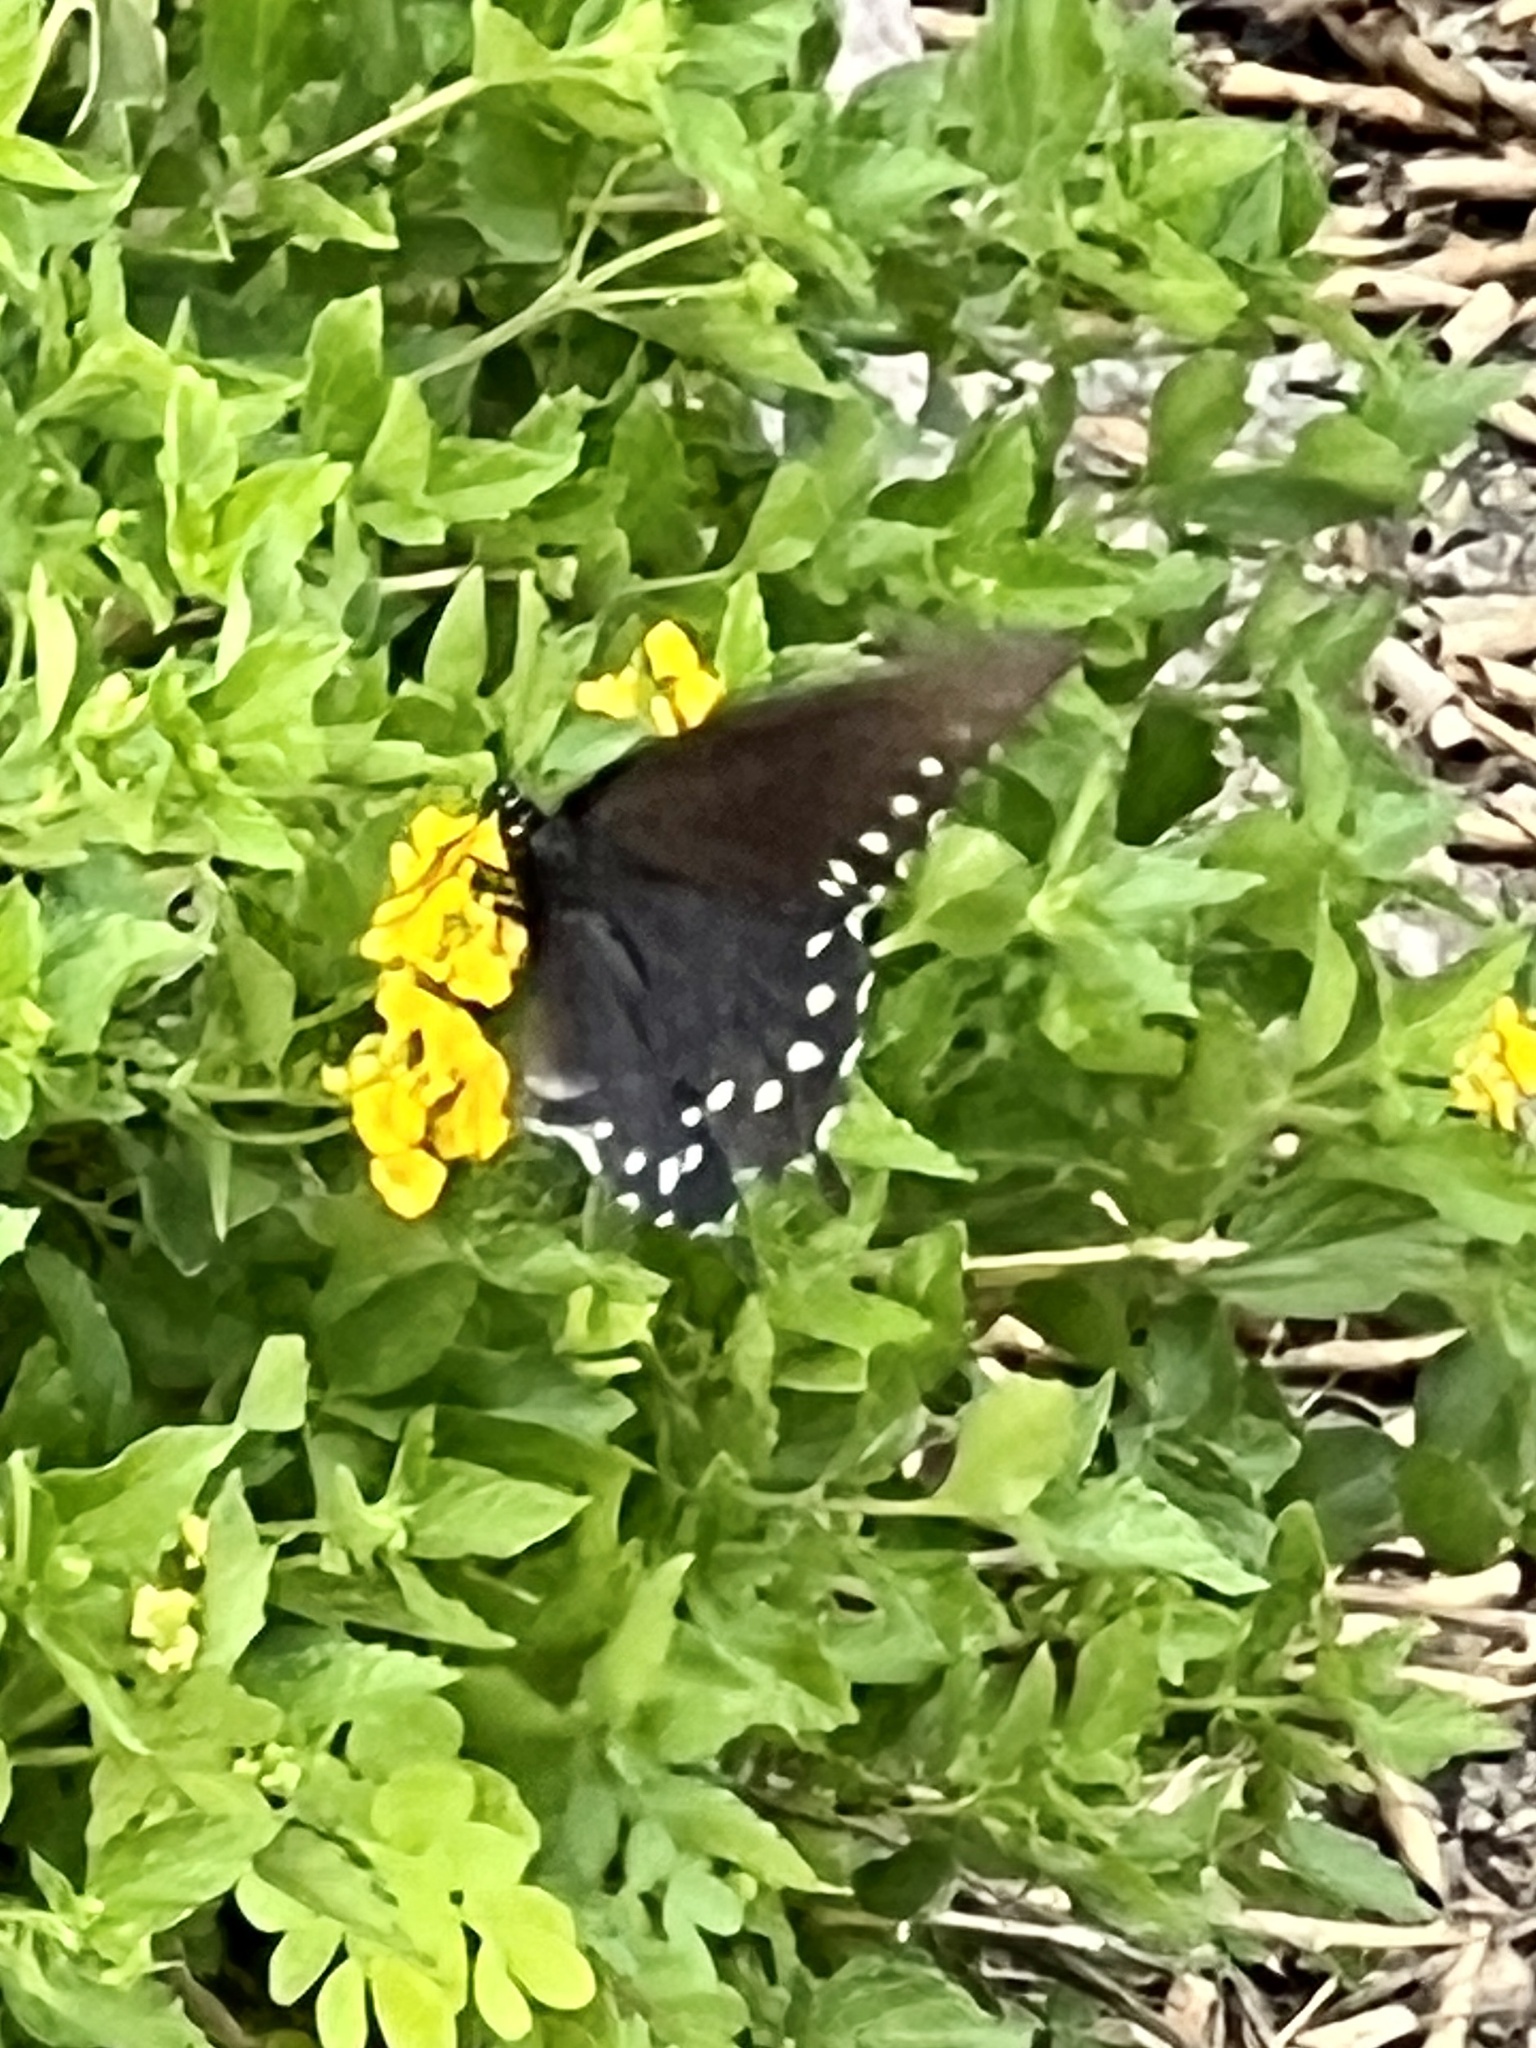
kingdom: Animalia
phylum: Arthropoda
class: Insecta
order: Lepidoptera
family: Papilionidae
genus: Battus
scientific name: Battus philenor
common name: Pipevine swallowtail
